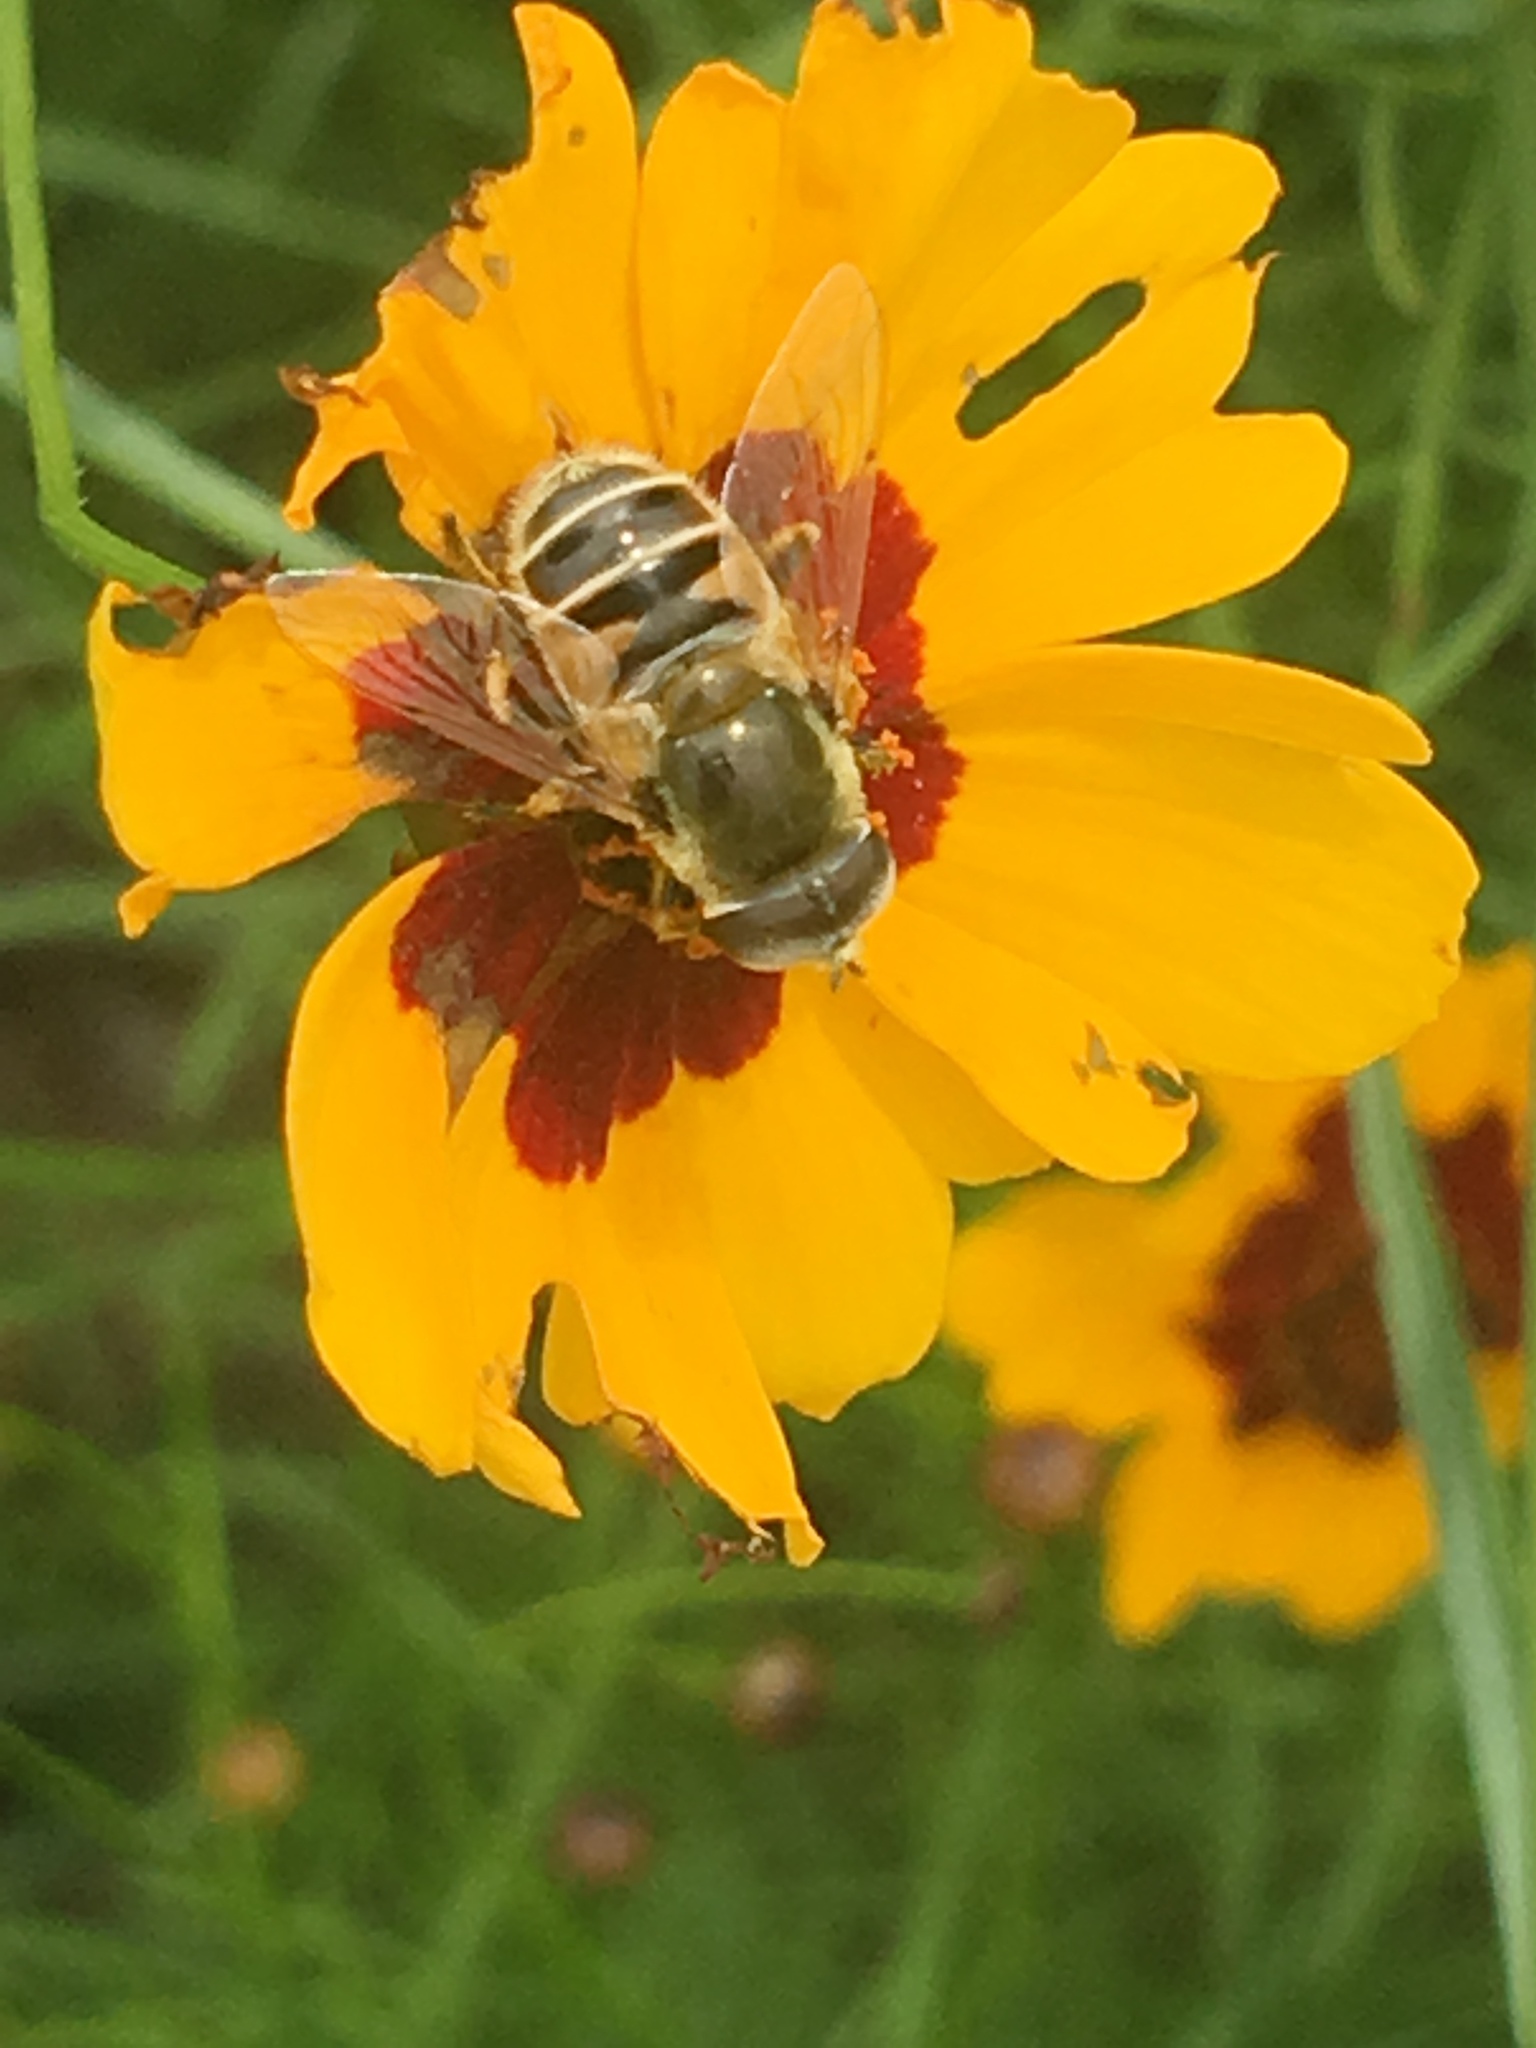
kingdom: Animalia
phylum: Arthropoda
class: Insecta
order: Diptera
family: Syrphidae
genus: Eristalis
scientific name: Eristalis stipator
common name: Yellow-shouldered drone fly
